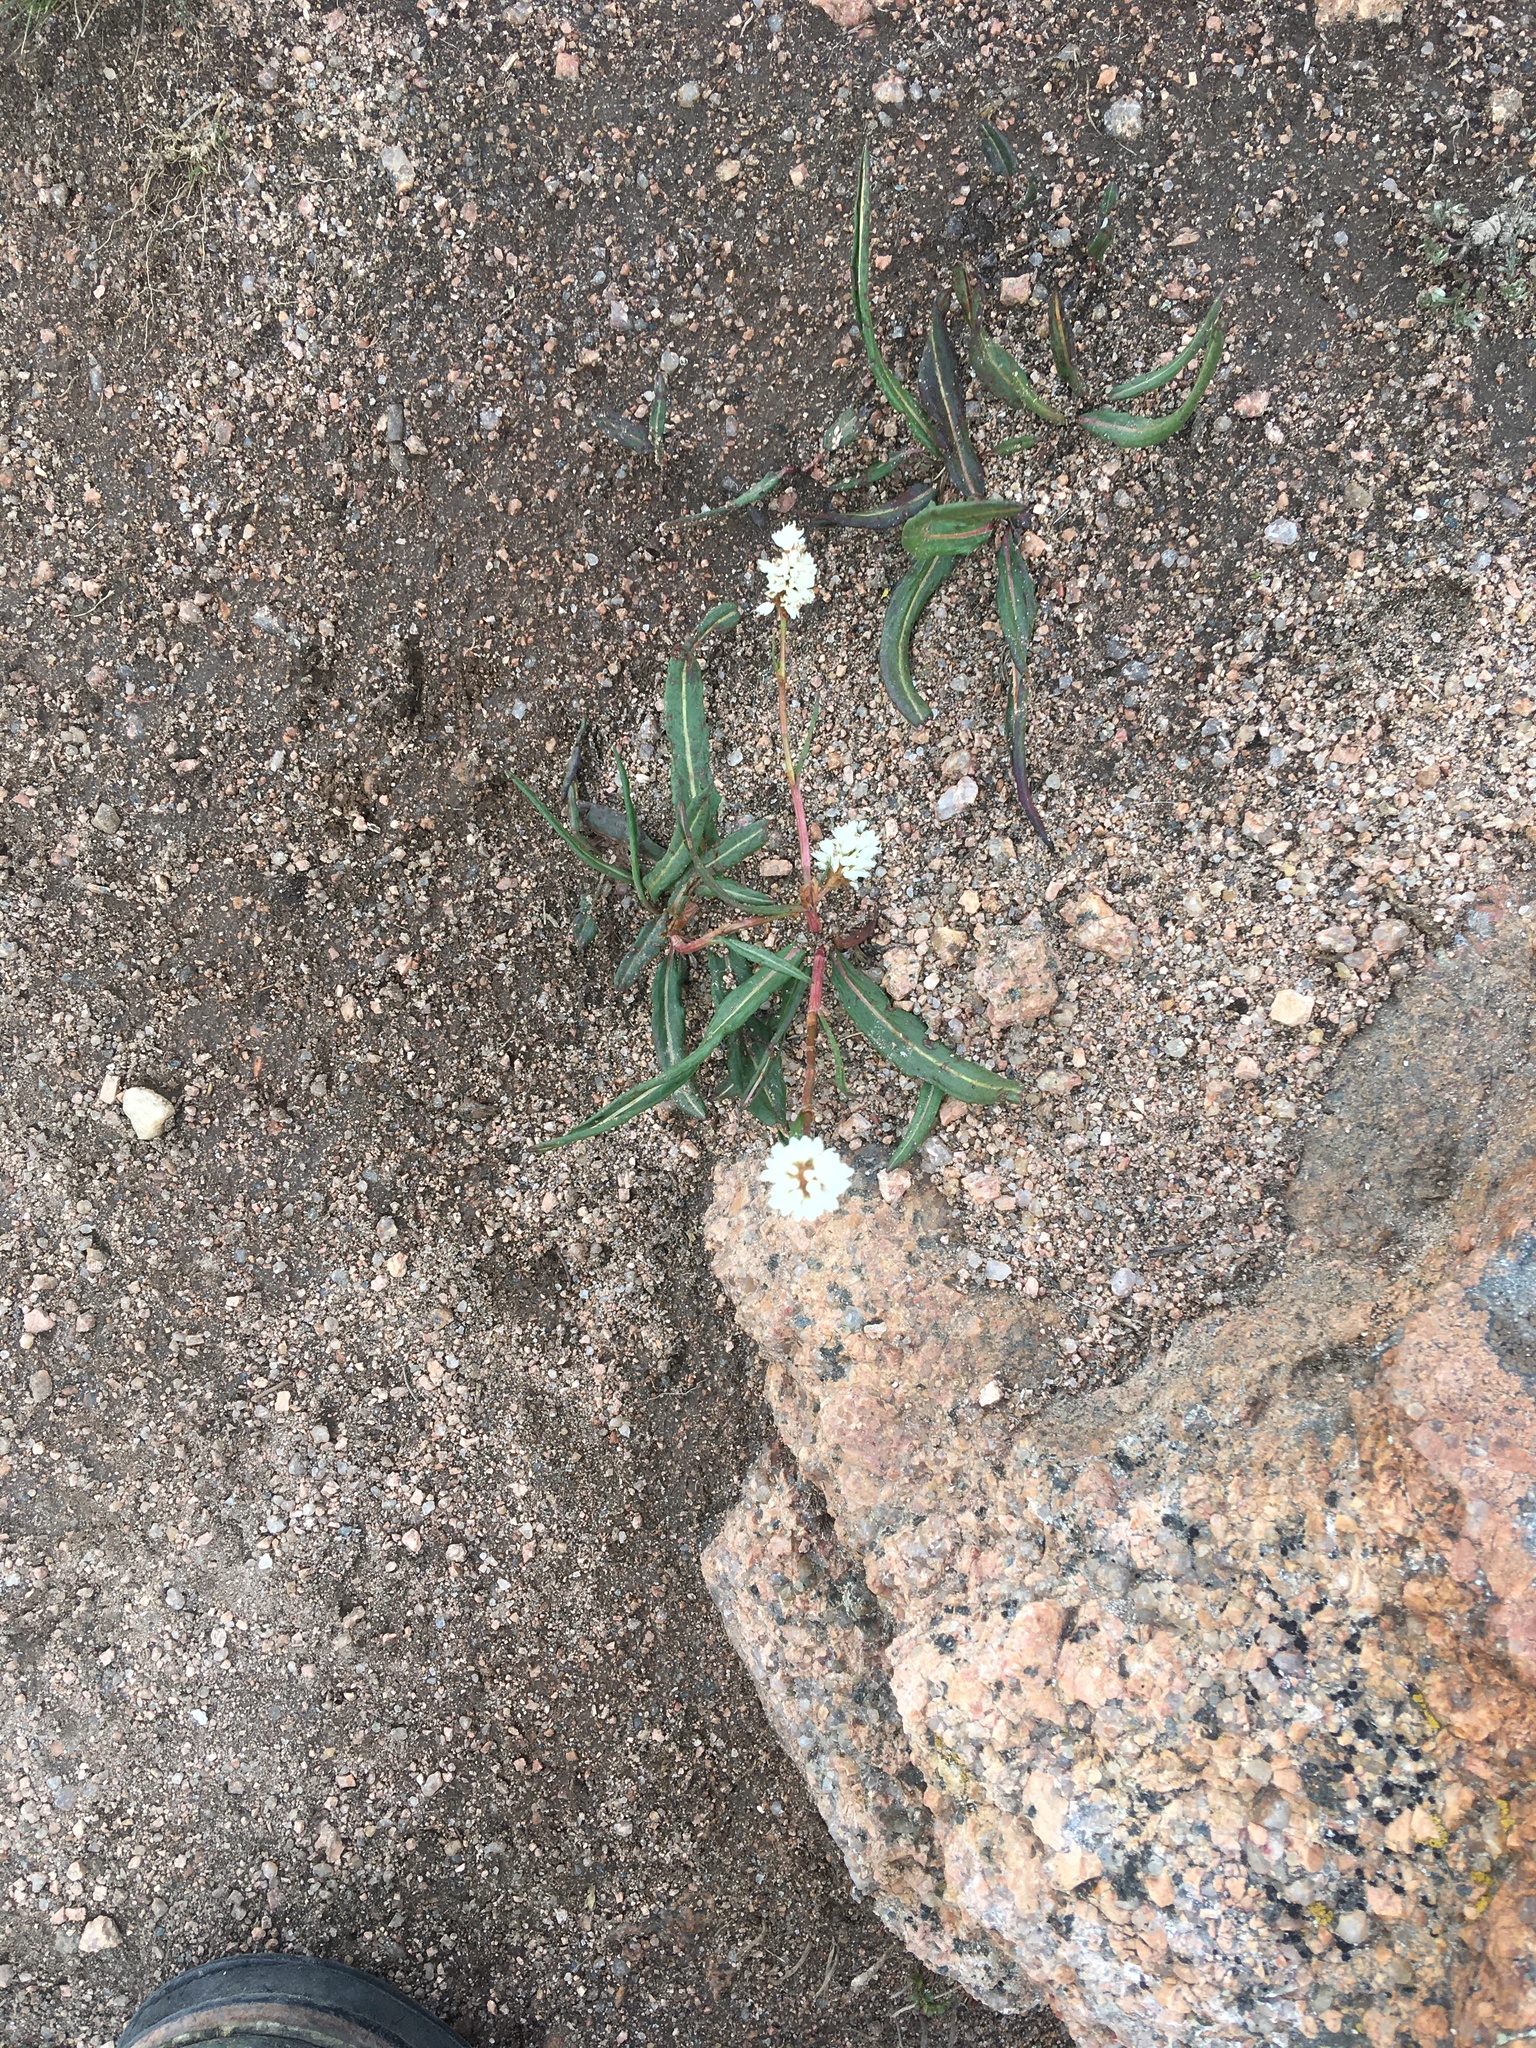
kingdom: Plantae
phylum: Tracheophyta
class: Magnoliopsida
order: Caryophyllales
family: Polygonaceae
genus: Bistorta
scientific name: Bistorta bistortoides
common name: American bistort
